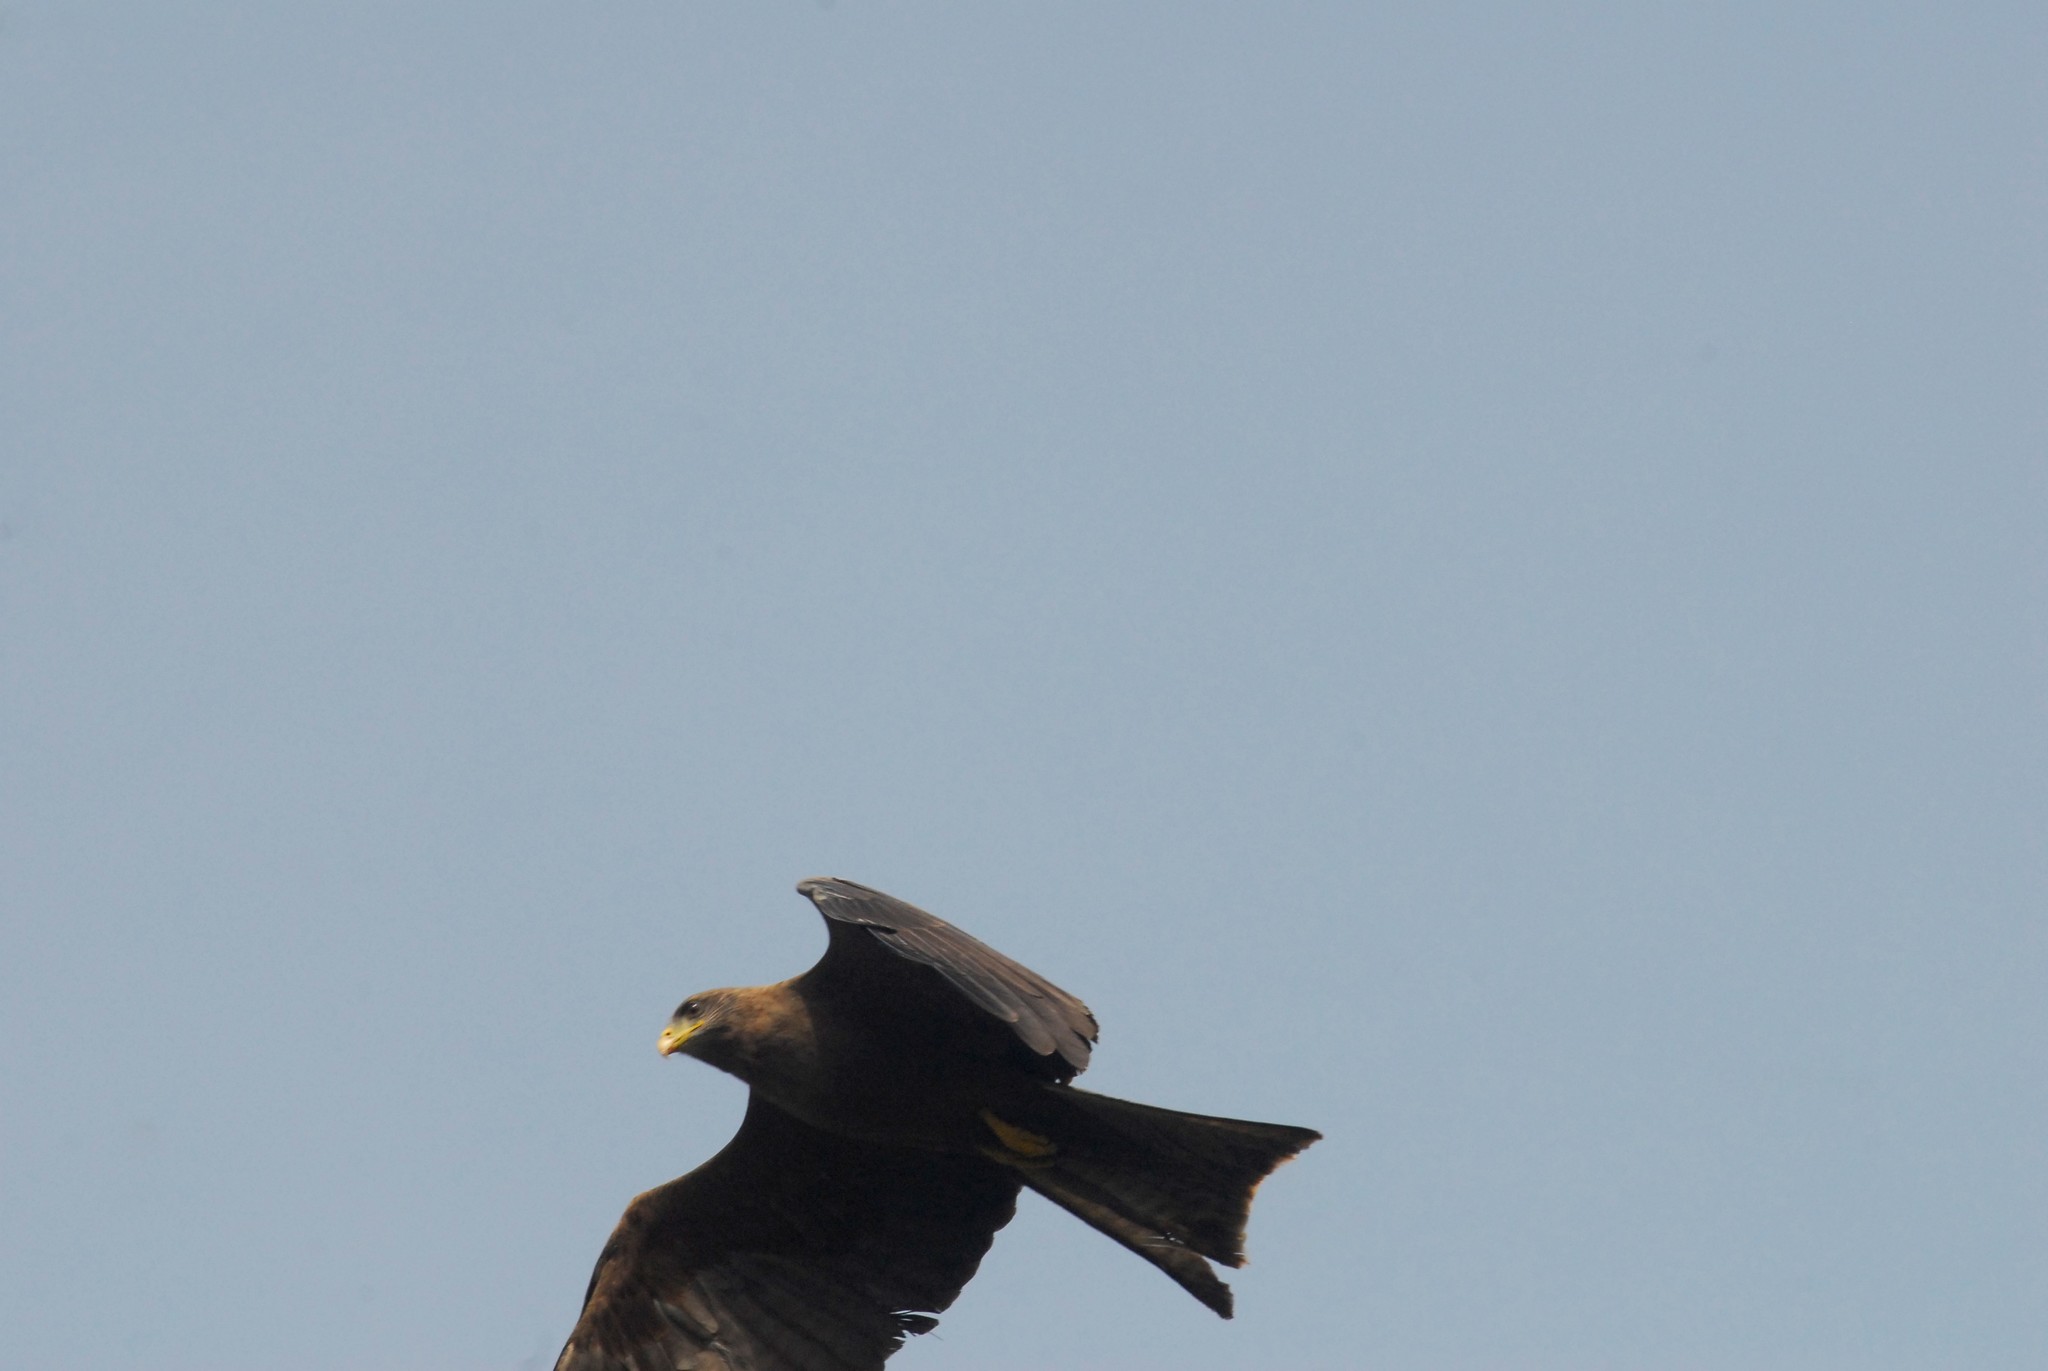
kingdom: Animalia
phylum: Chordata
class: Aves
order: Accipitriformes
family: Accipitridae
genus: Milvus
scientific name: Milvus migrans
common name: Black kite
